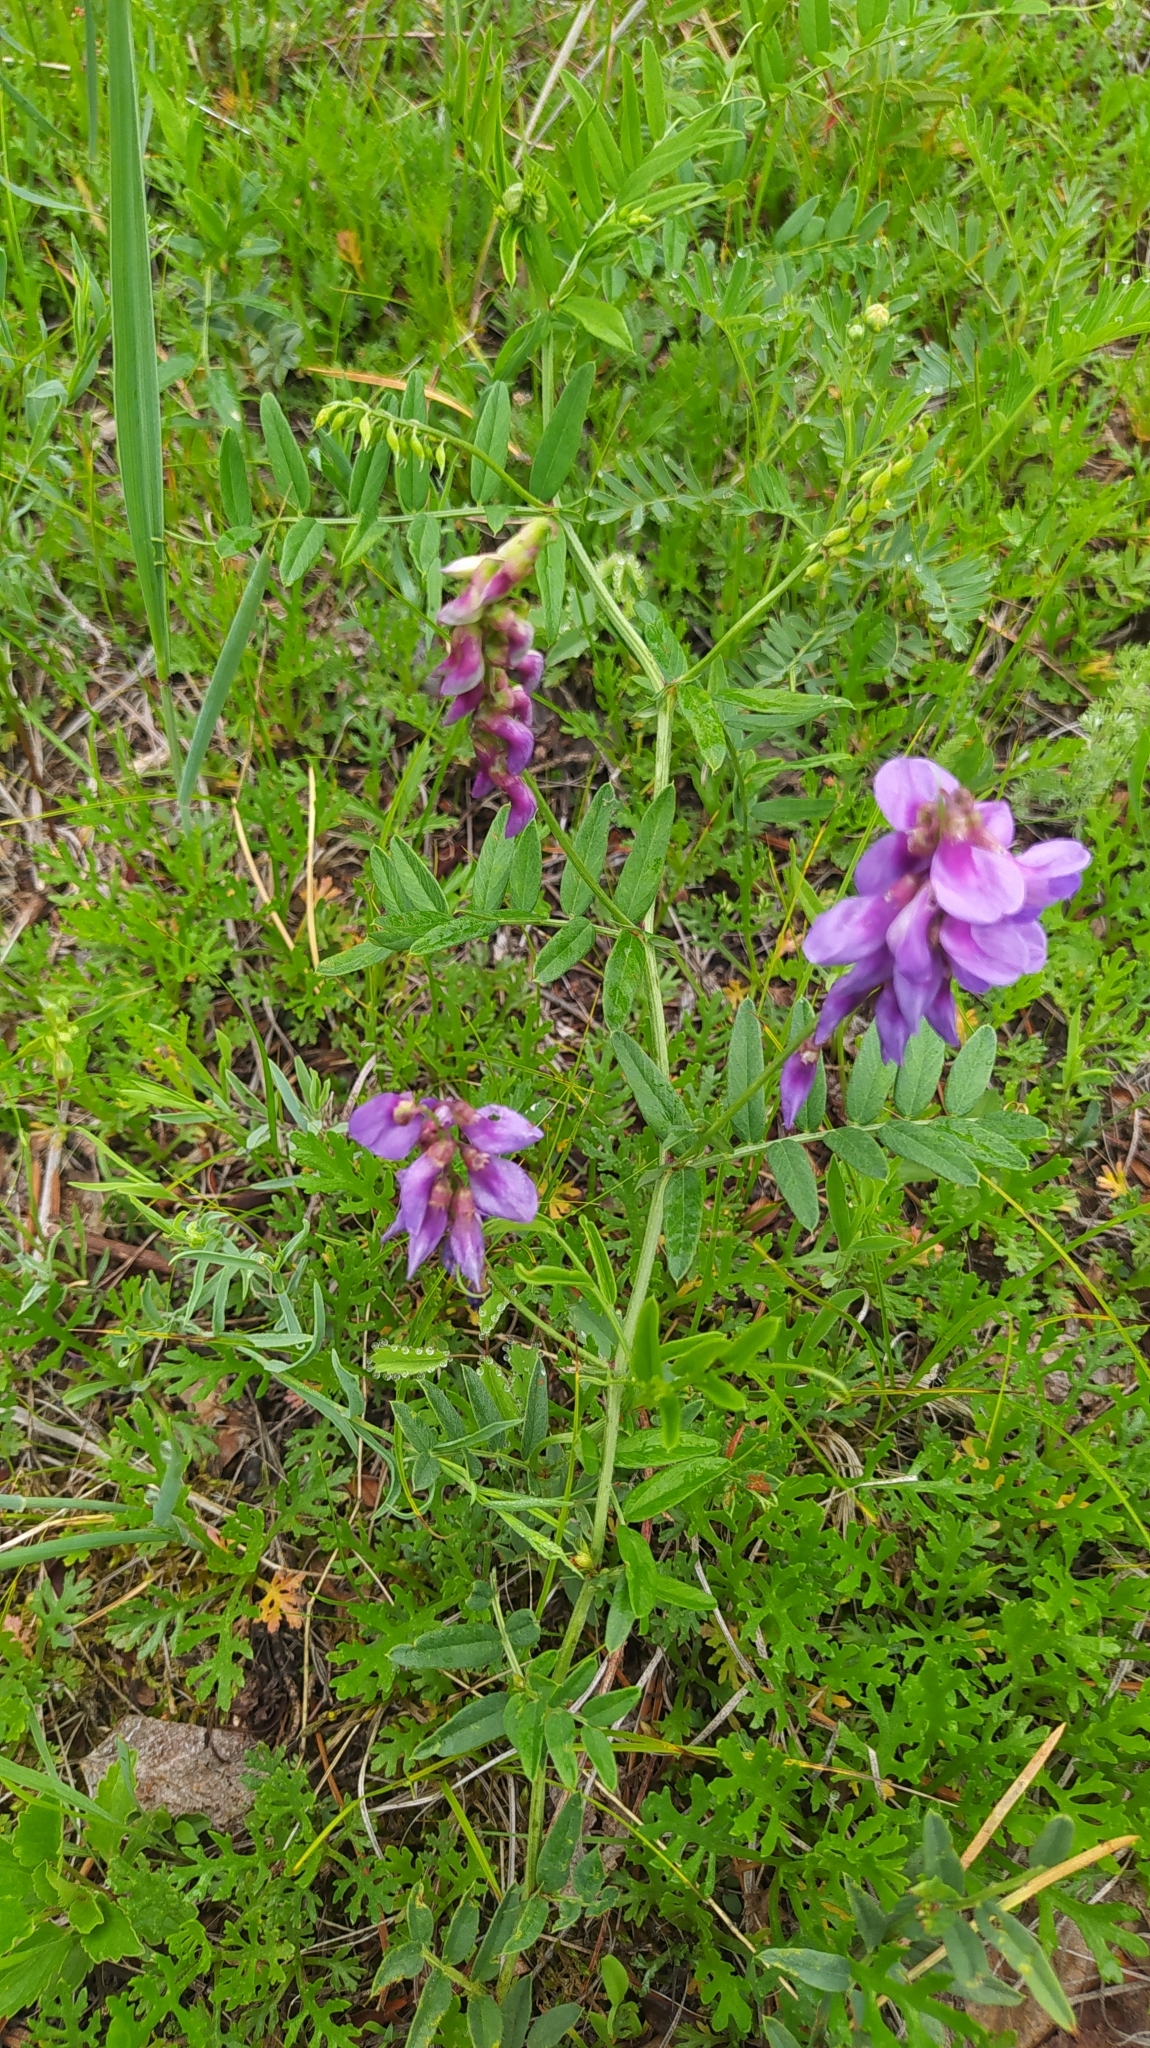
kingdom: Plantae
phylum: Tracheophyta
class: Magnoliopsida
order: Fabales
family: Fabaceae
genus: Vicia
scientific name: Vicia amoena
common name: Cheder ebs
